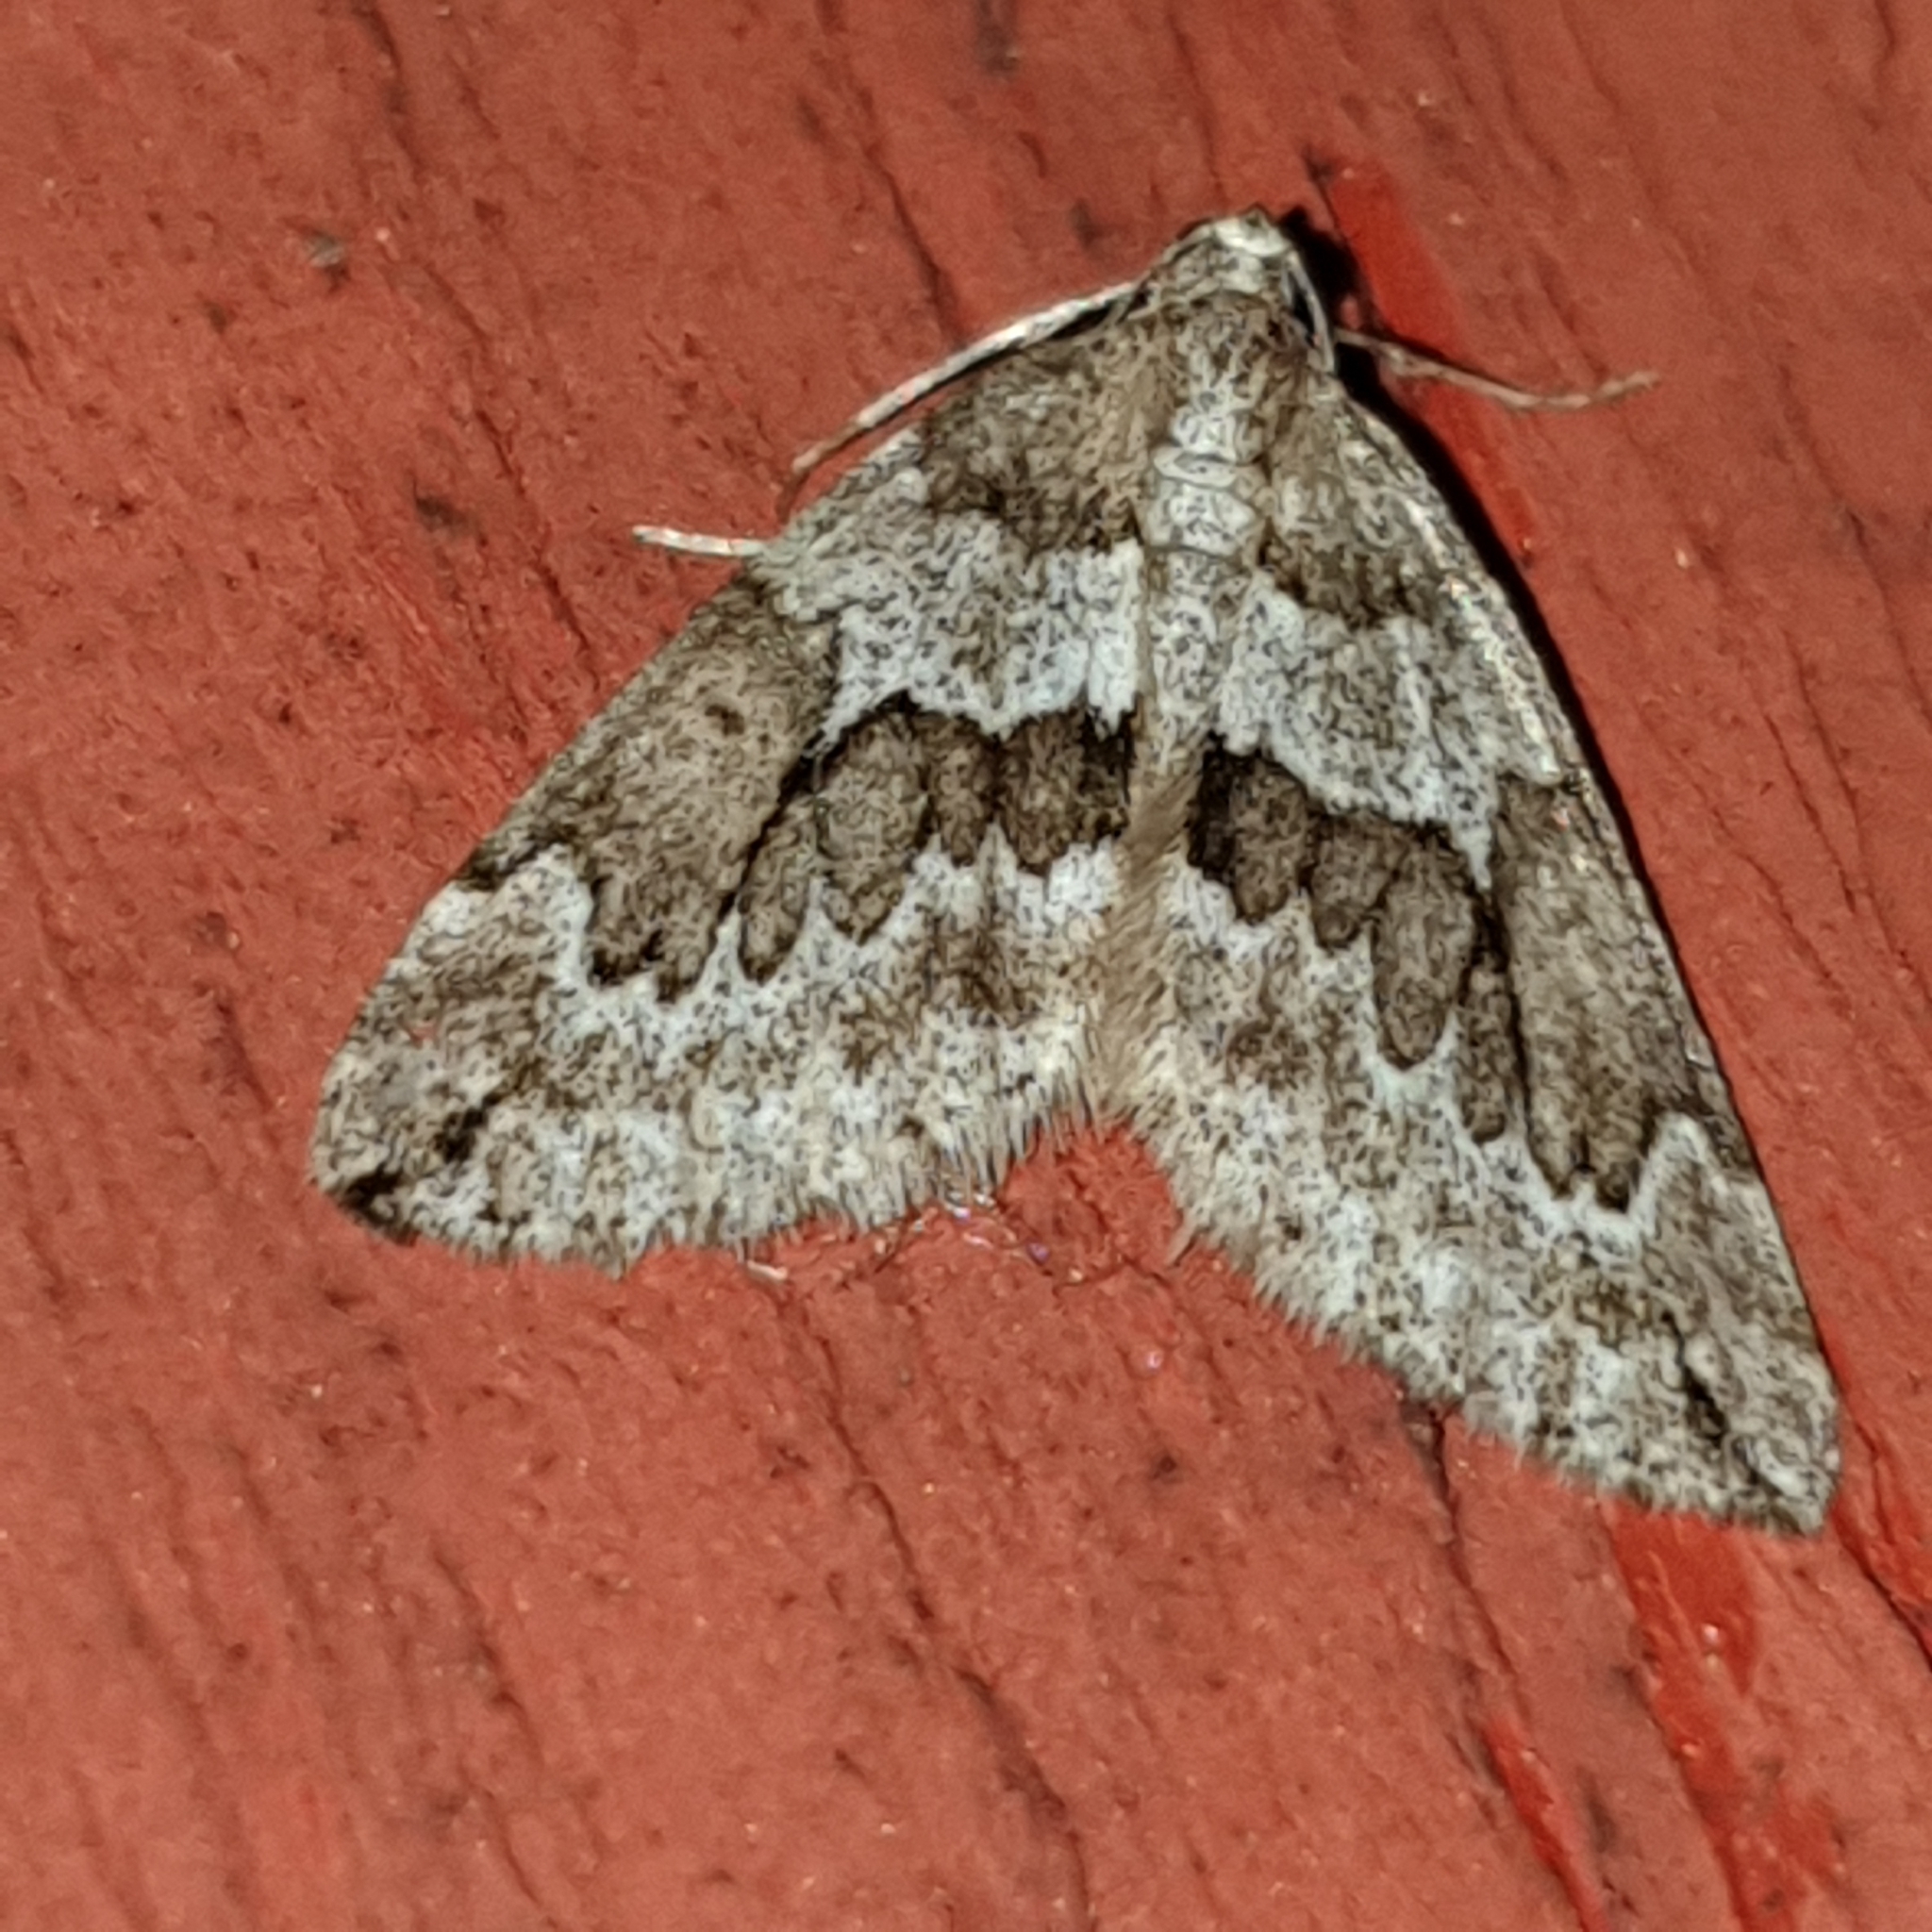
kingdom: Animalia
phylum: Arthropoda
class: Insecta
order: Lepidoptera
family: Geometridae
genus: Thera
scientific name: Thera juniperata
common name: Juniper carpet
